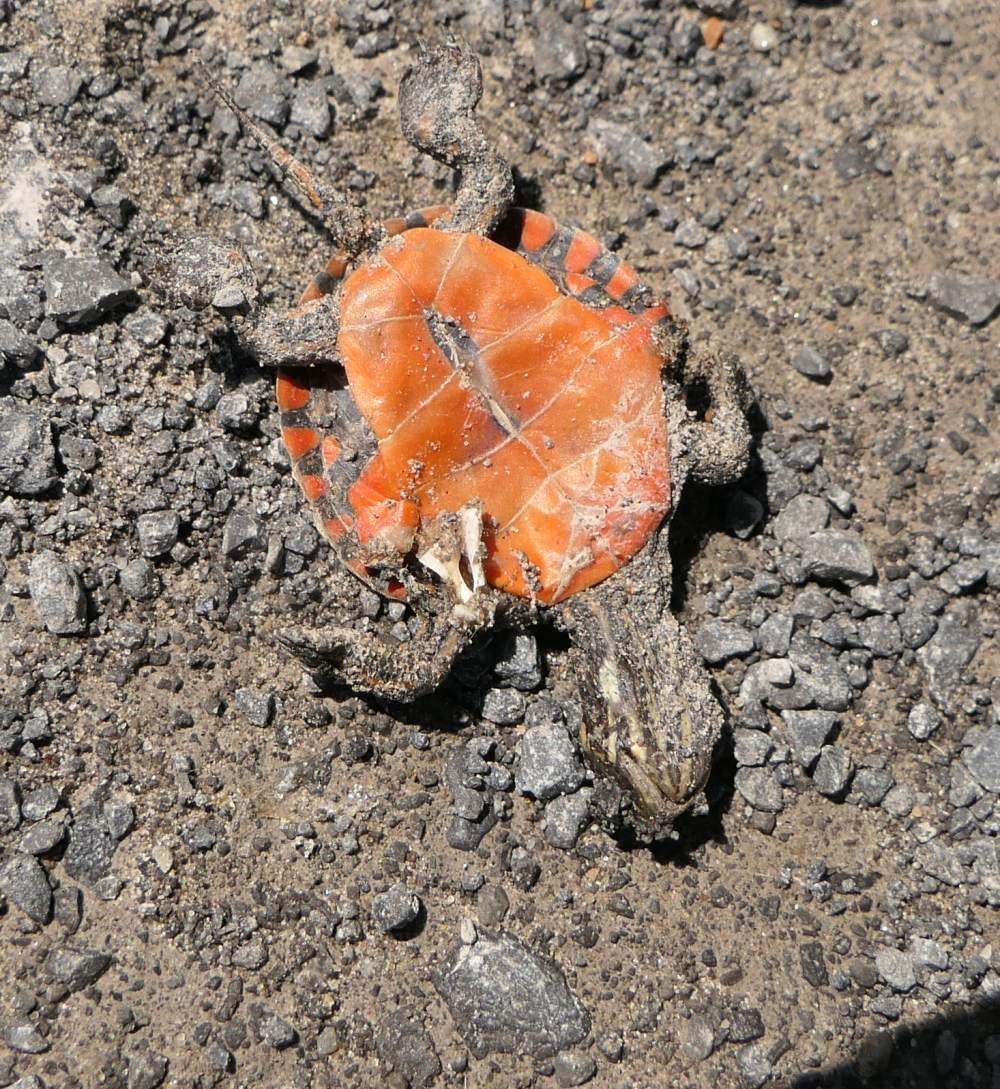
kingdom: Animalia
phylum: Chordata
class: Testudines
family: Emydidae
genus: Chrysemys
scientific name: Chrysemys picta
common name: Painted turtle
